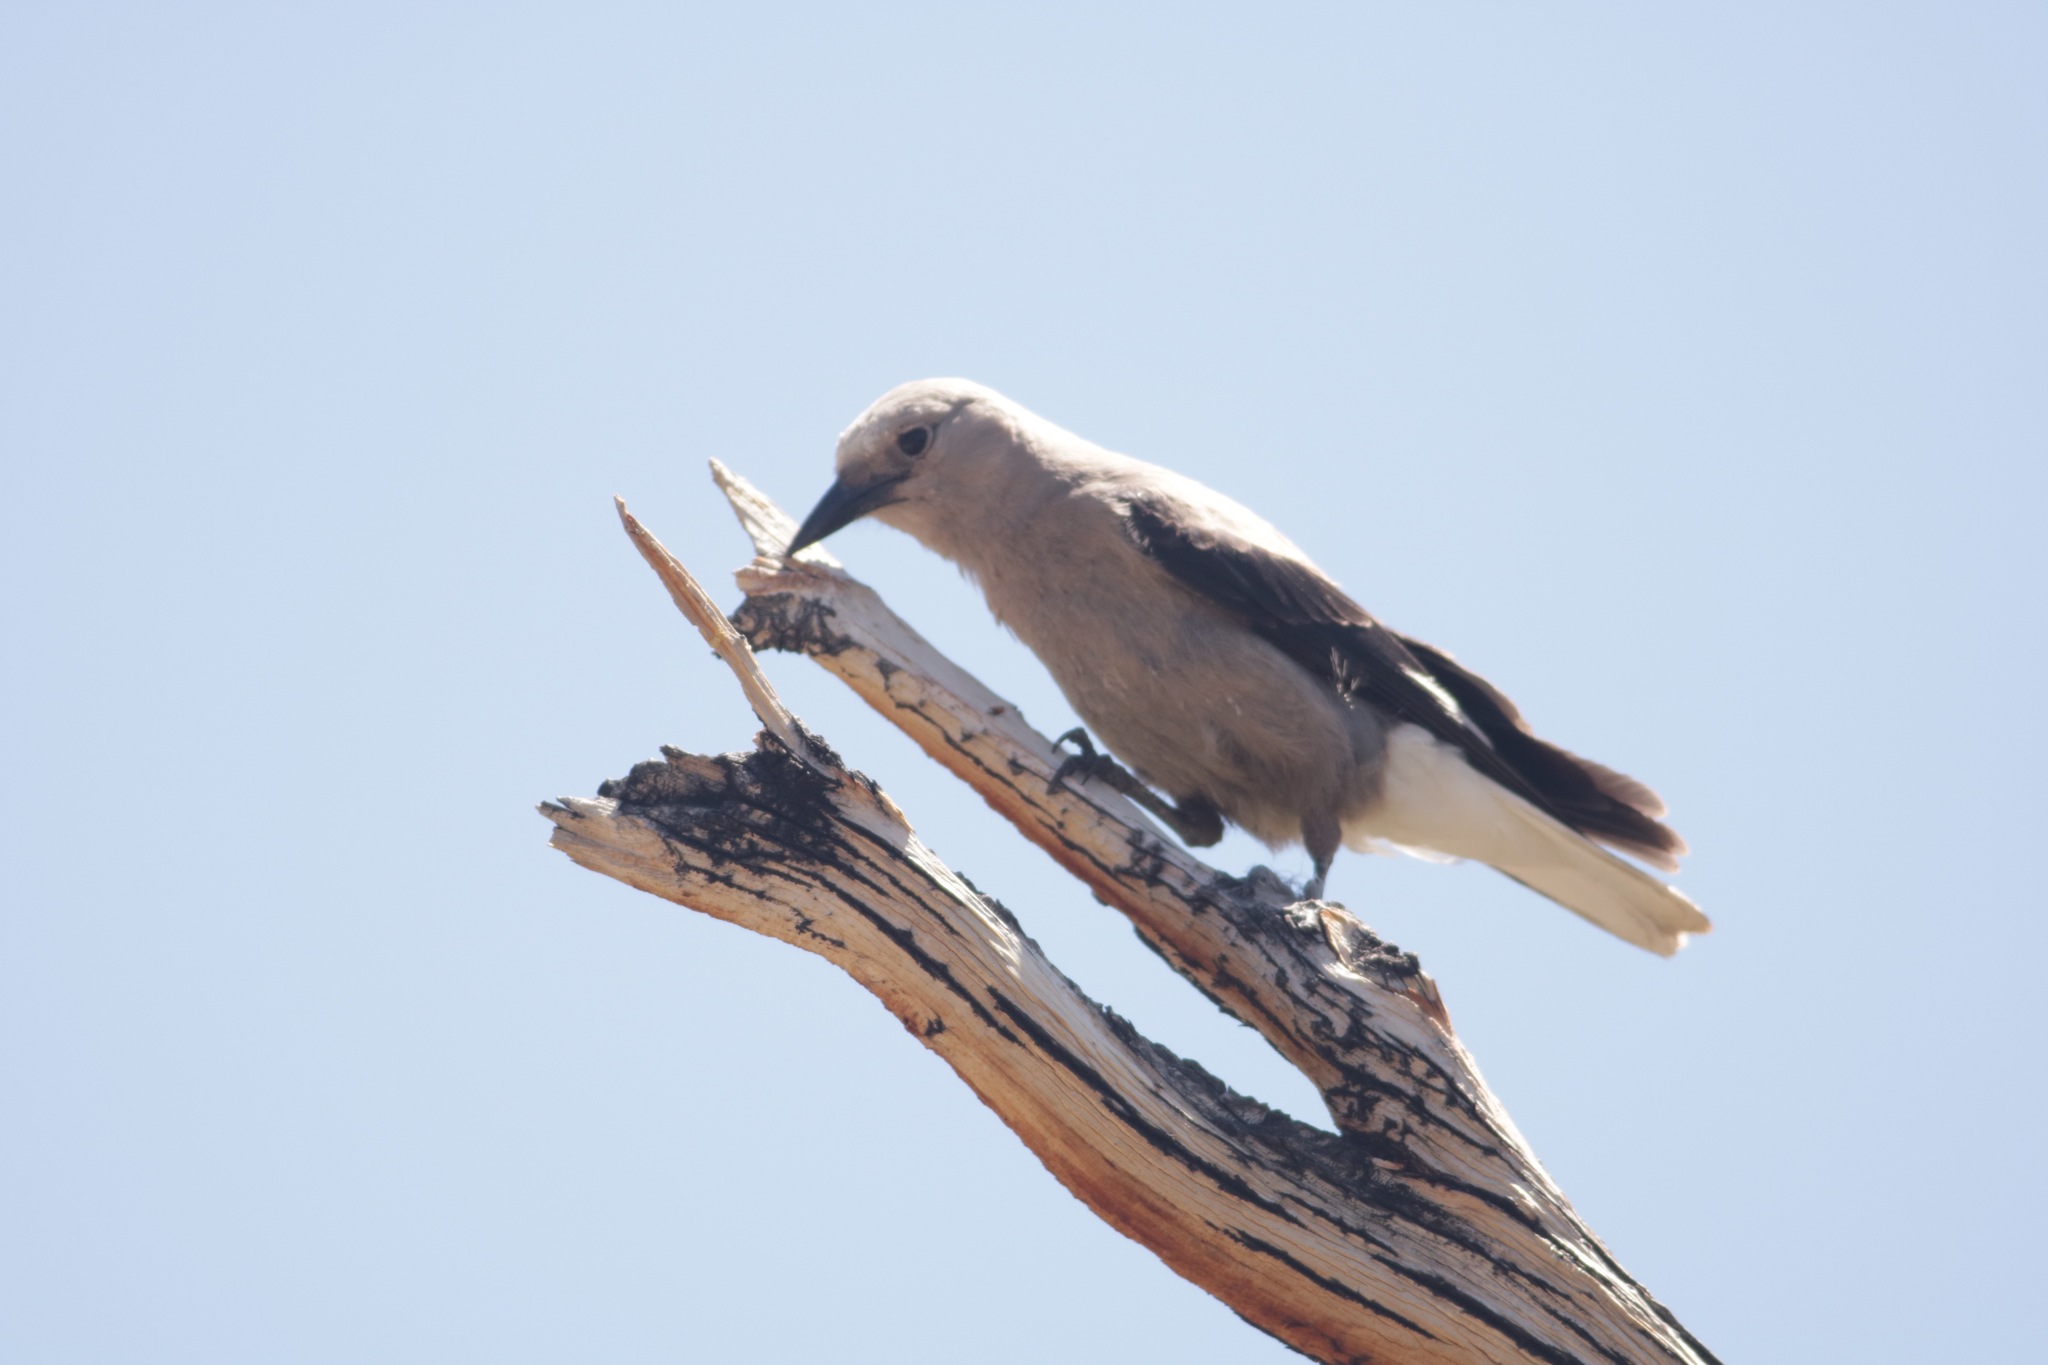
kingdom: Animalia
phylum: Chordata
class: Aves
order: Passeriformes
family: Corvidae
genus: Nucifraga
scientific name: Nucifraga columbiana
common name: Clark's nutcracker
